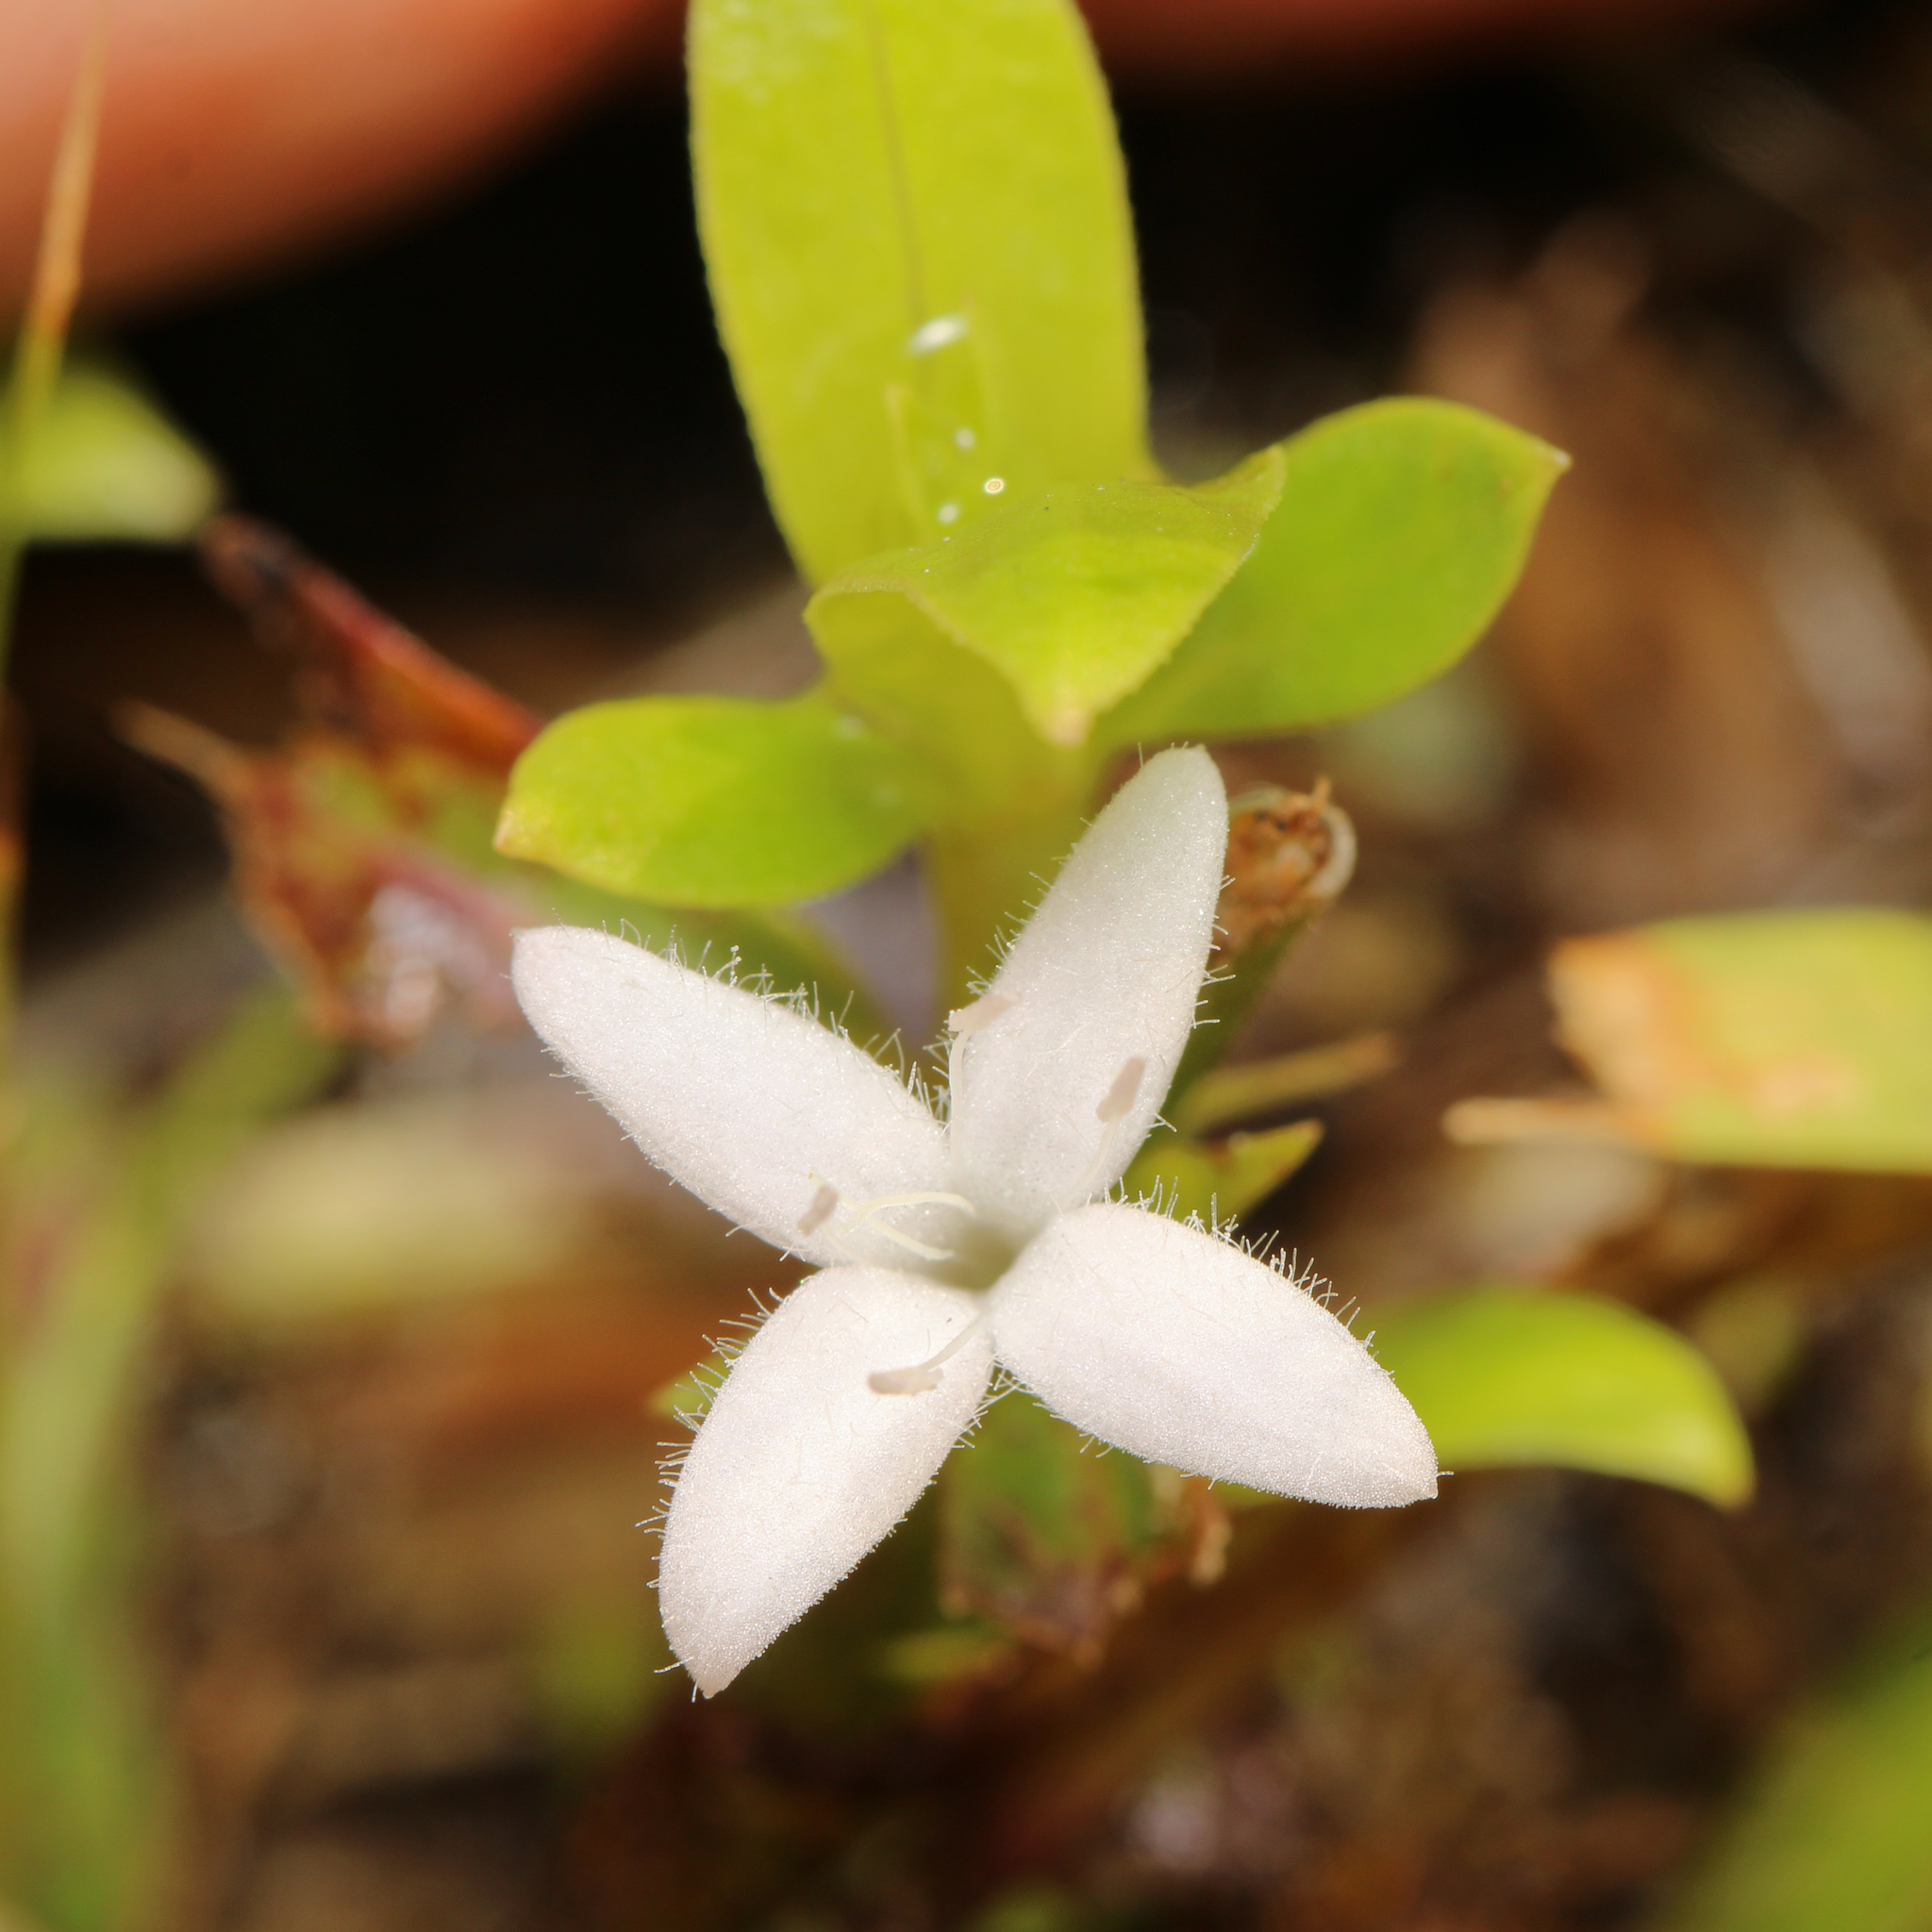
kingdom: Plantae
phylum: Tracheophyta
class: Magnoliopsida
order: Gentianales
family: Rubiaceae
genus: Diodia
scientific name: Diodia virginiana
